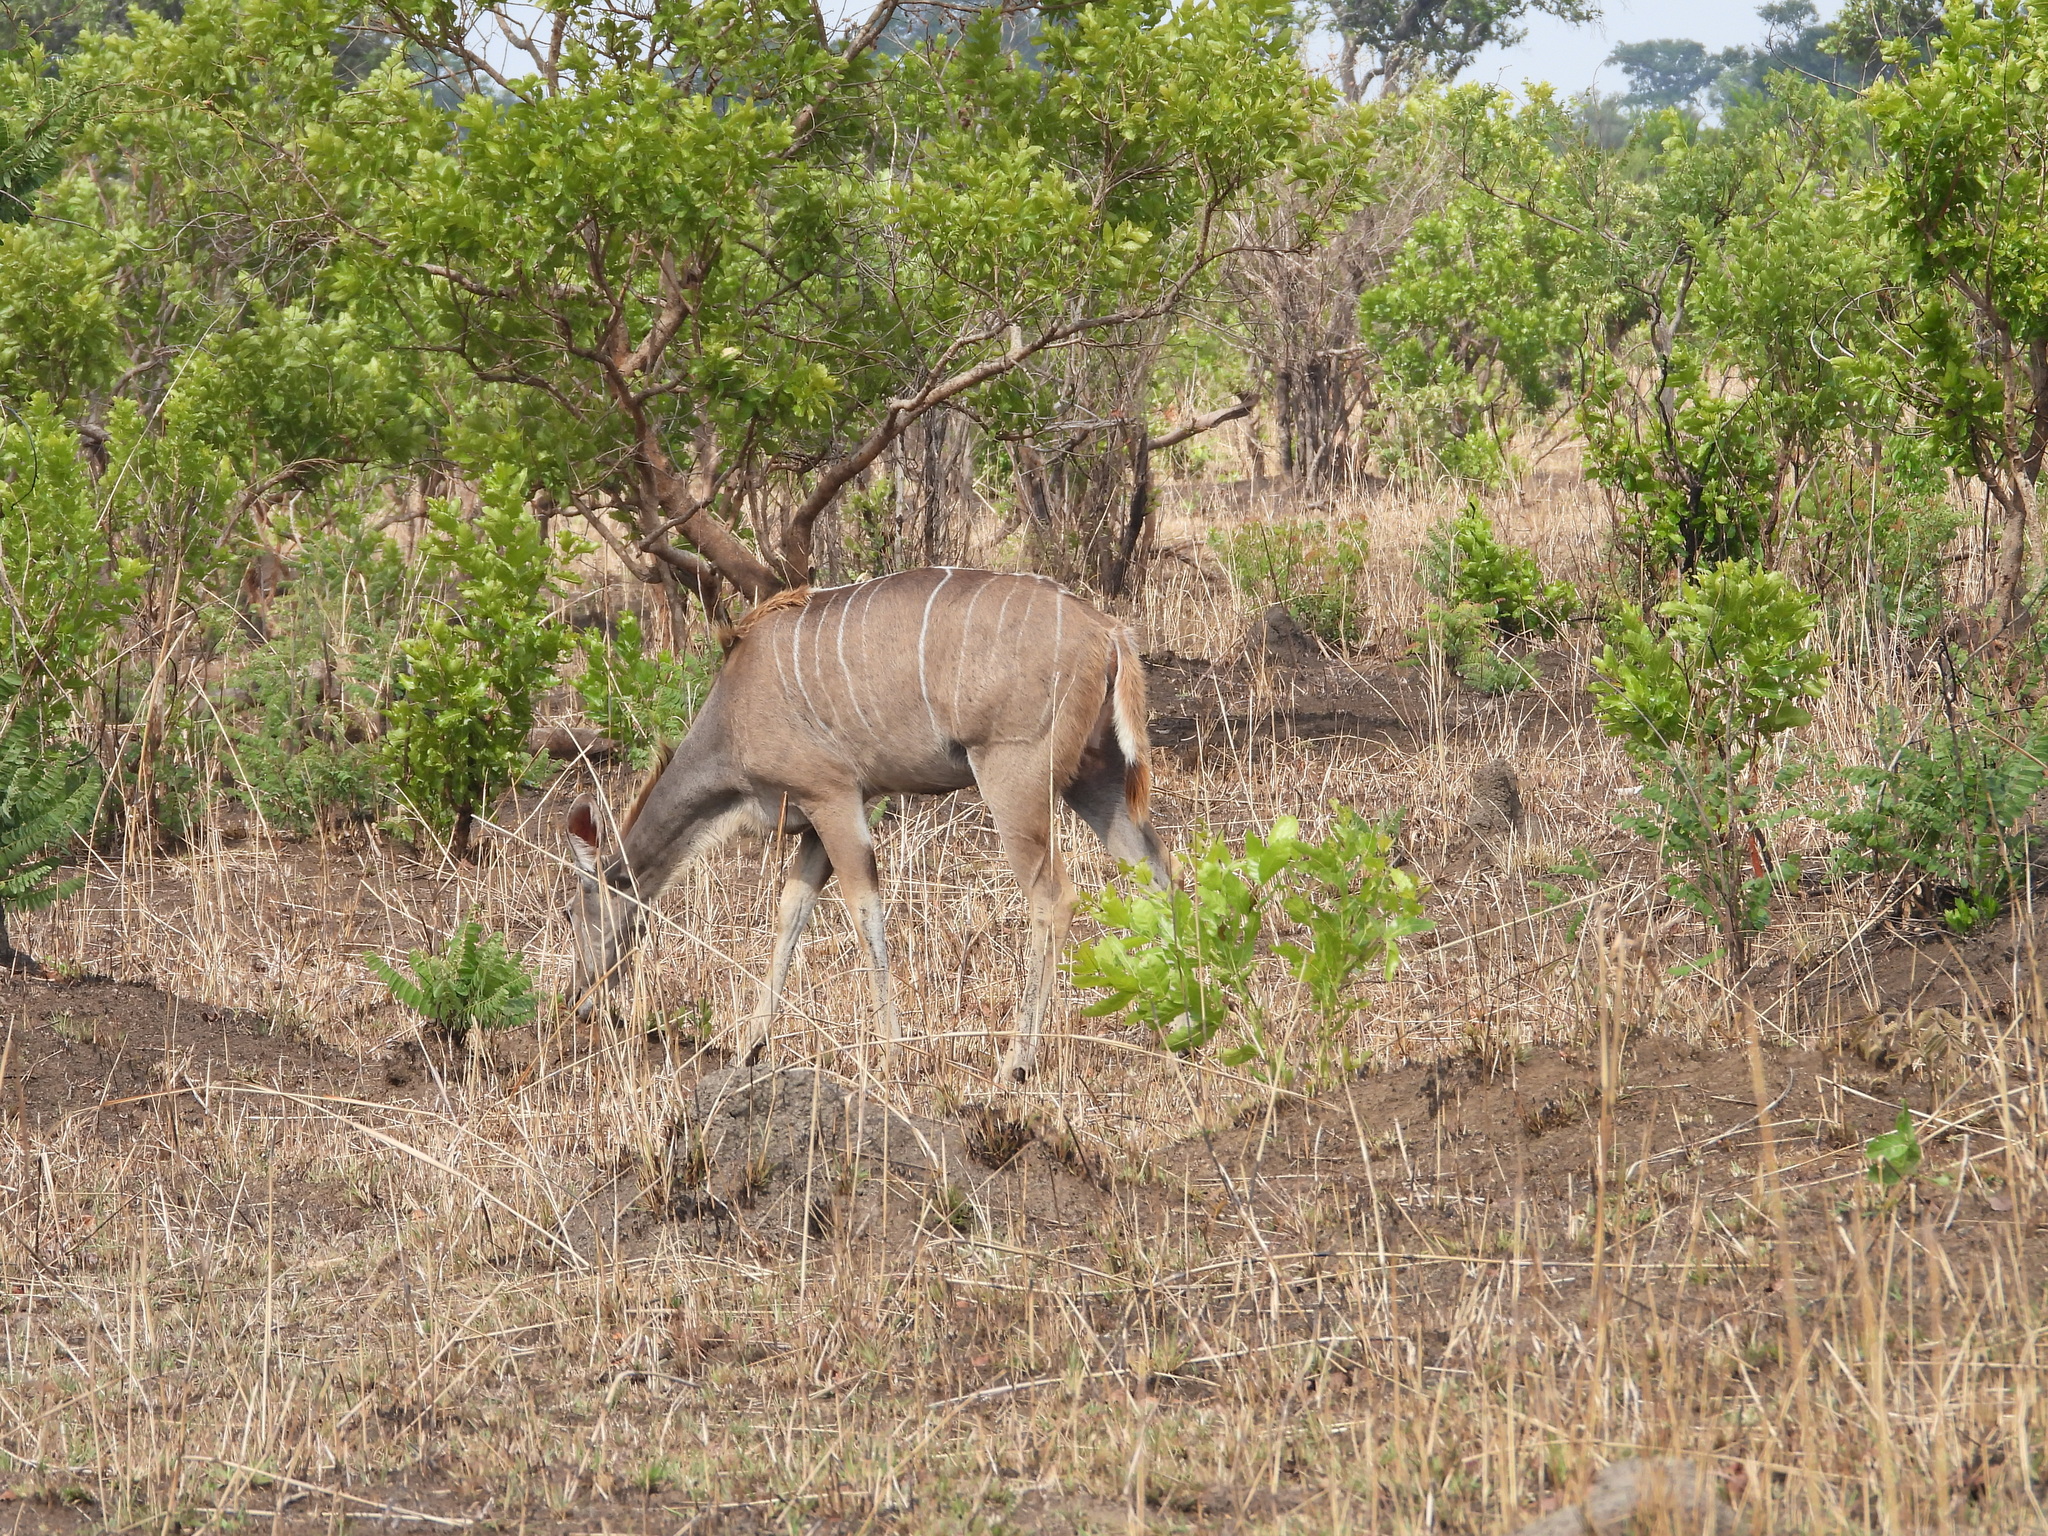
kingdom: Animalia
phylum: Chordata
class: Mammalia
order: Artiodactyla
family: Bovidae
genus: Tragelaphus
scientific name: Tragelaphus strepsiceros
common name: Greater kudu
